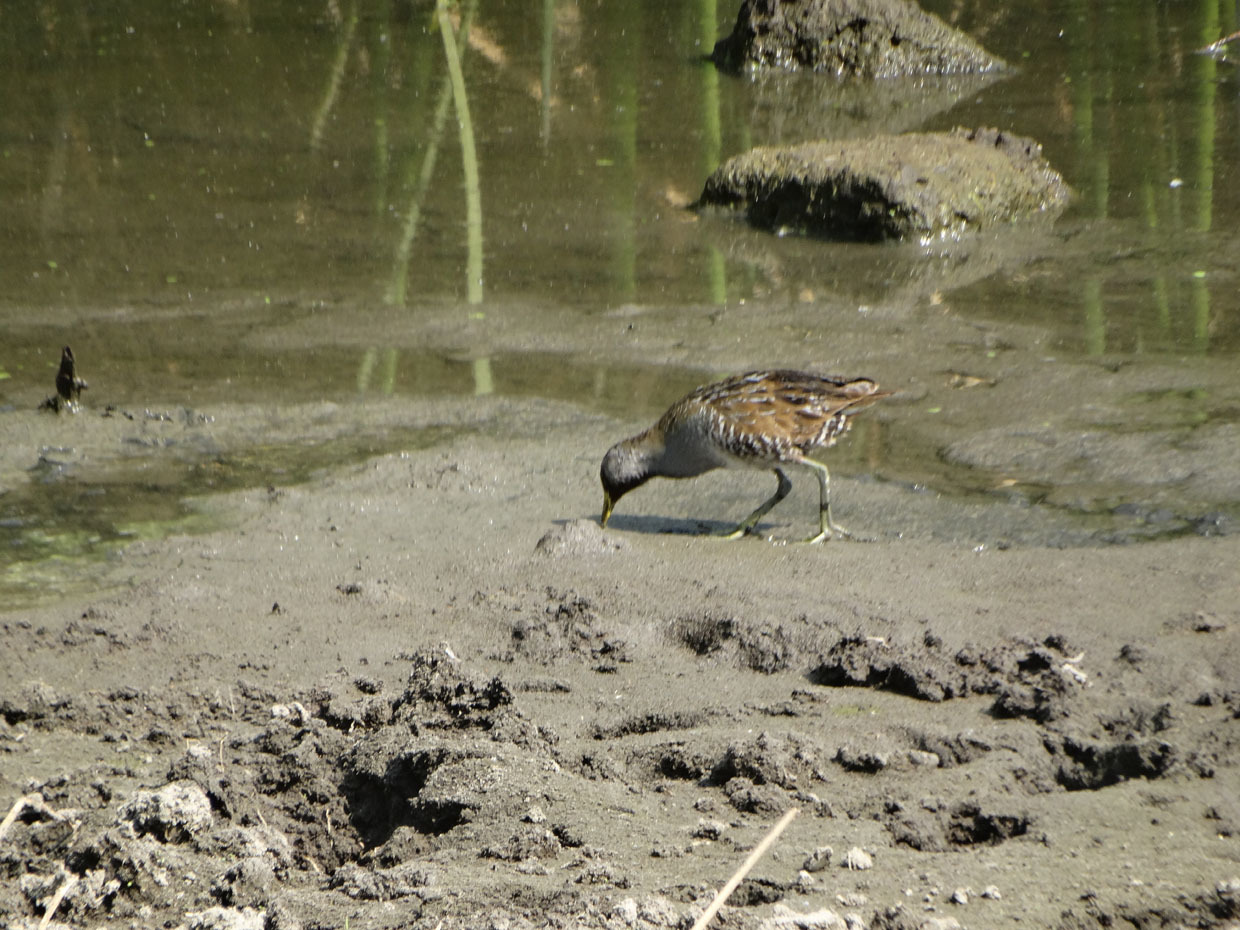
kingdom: Animalia
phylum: Chordata
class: Aves
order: Gruiformes
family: Rallidae
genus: Porzana
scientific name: Porzana carolina
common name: Sora
